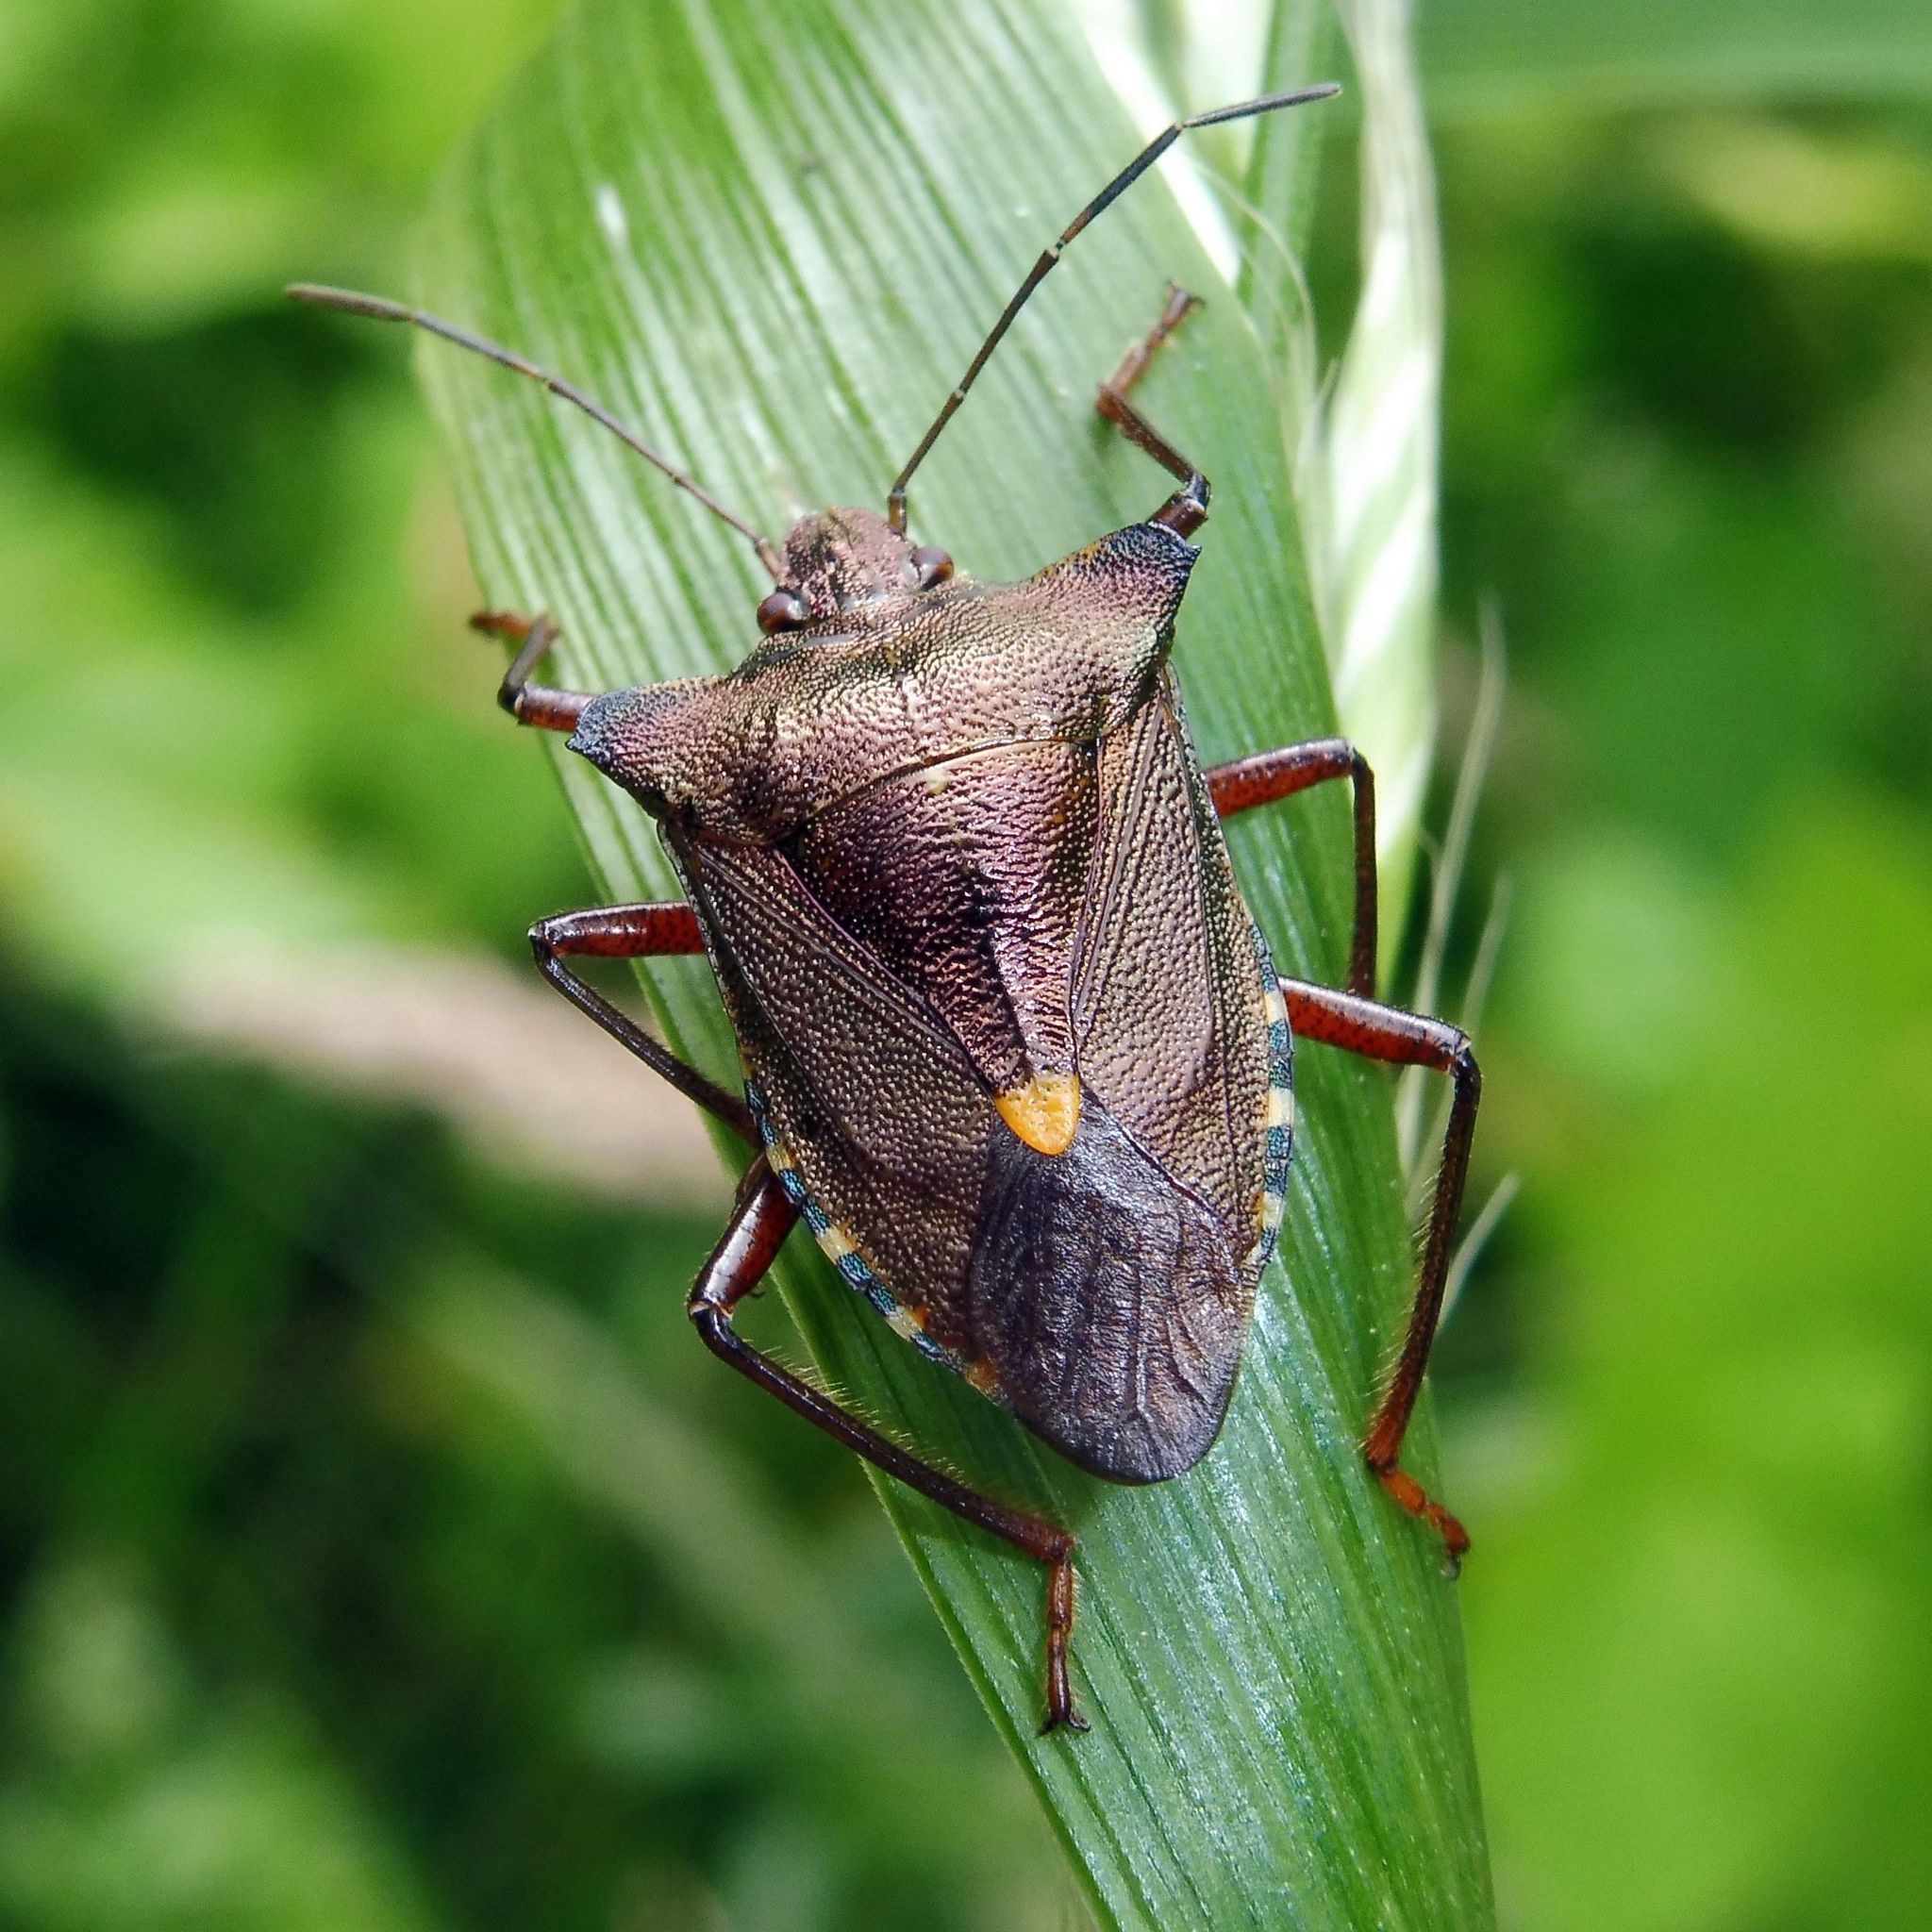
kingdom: Animalia
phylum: Arthropoda
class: Insecta
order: Hemiptera
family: Pentatomidae
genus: Pentatoma
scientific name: Pentatoma rufipes
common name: Forest bug
